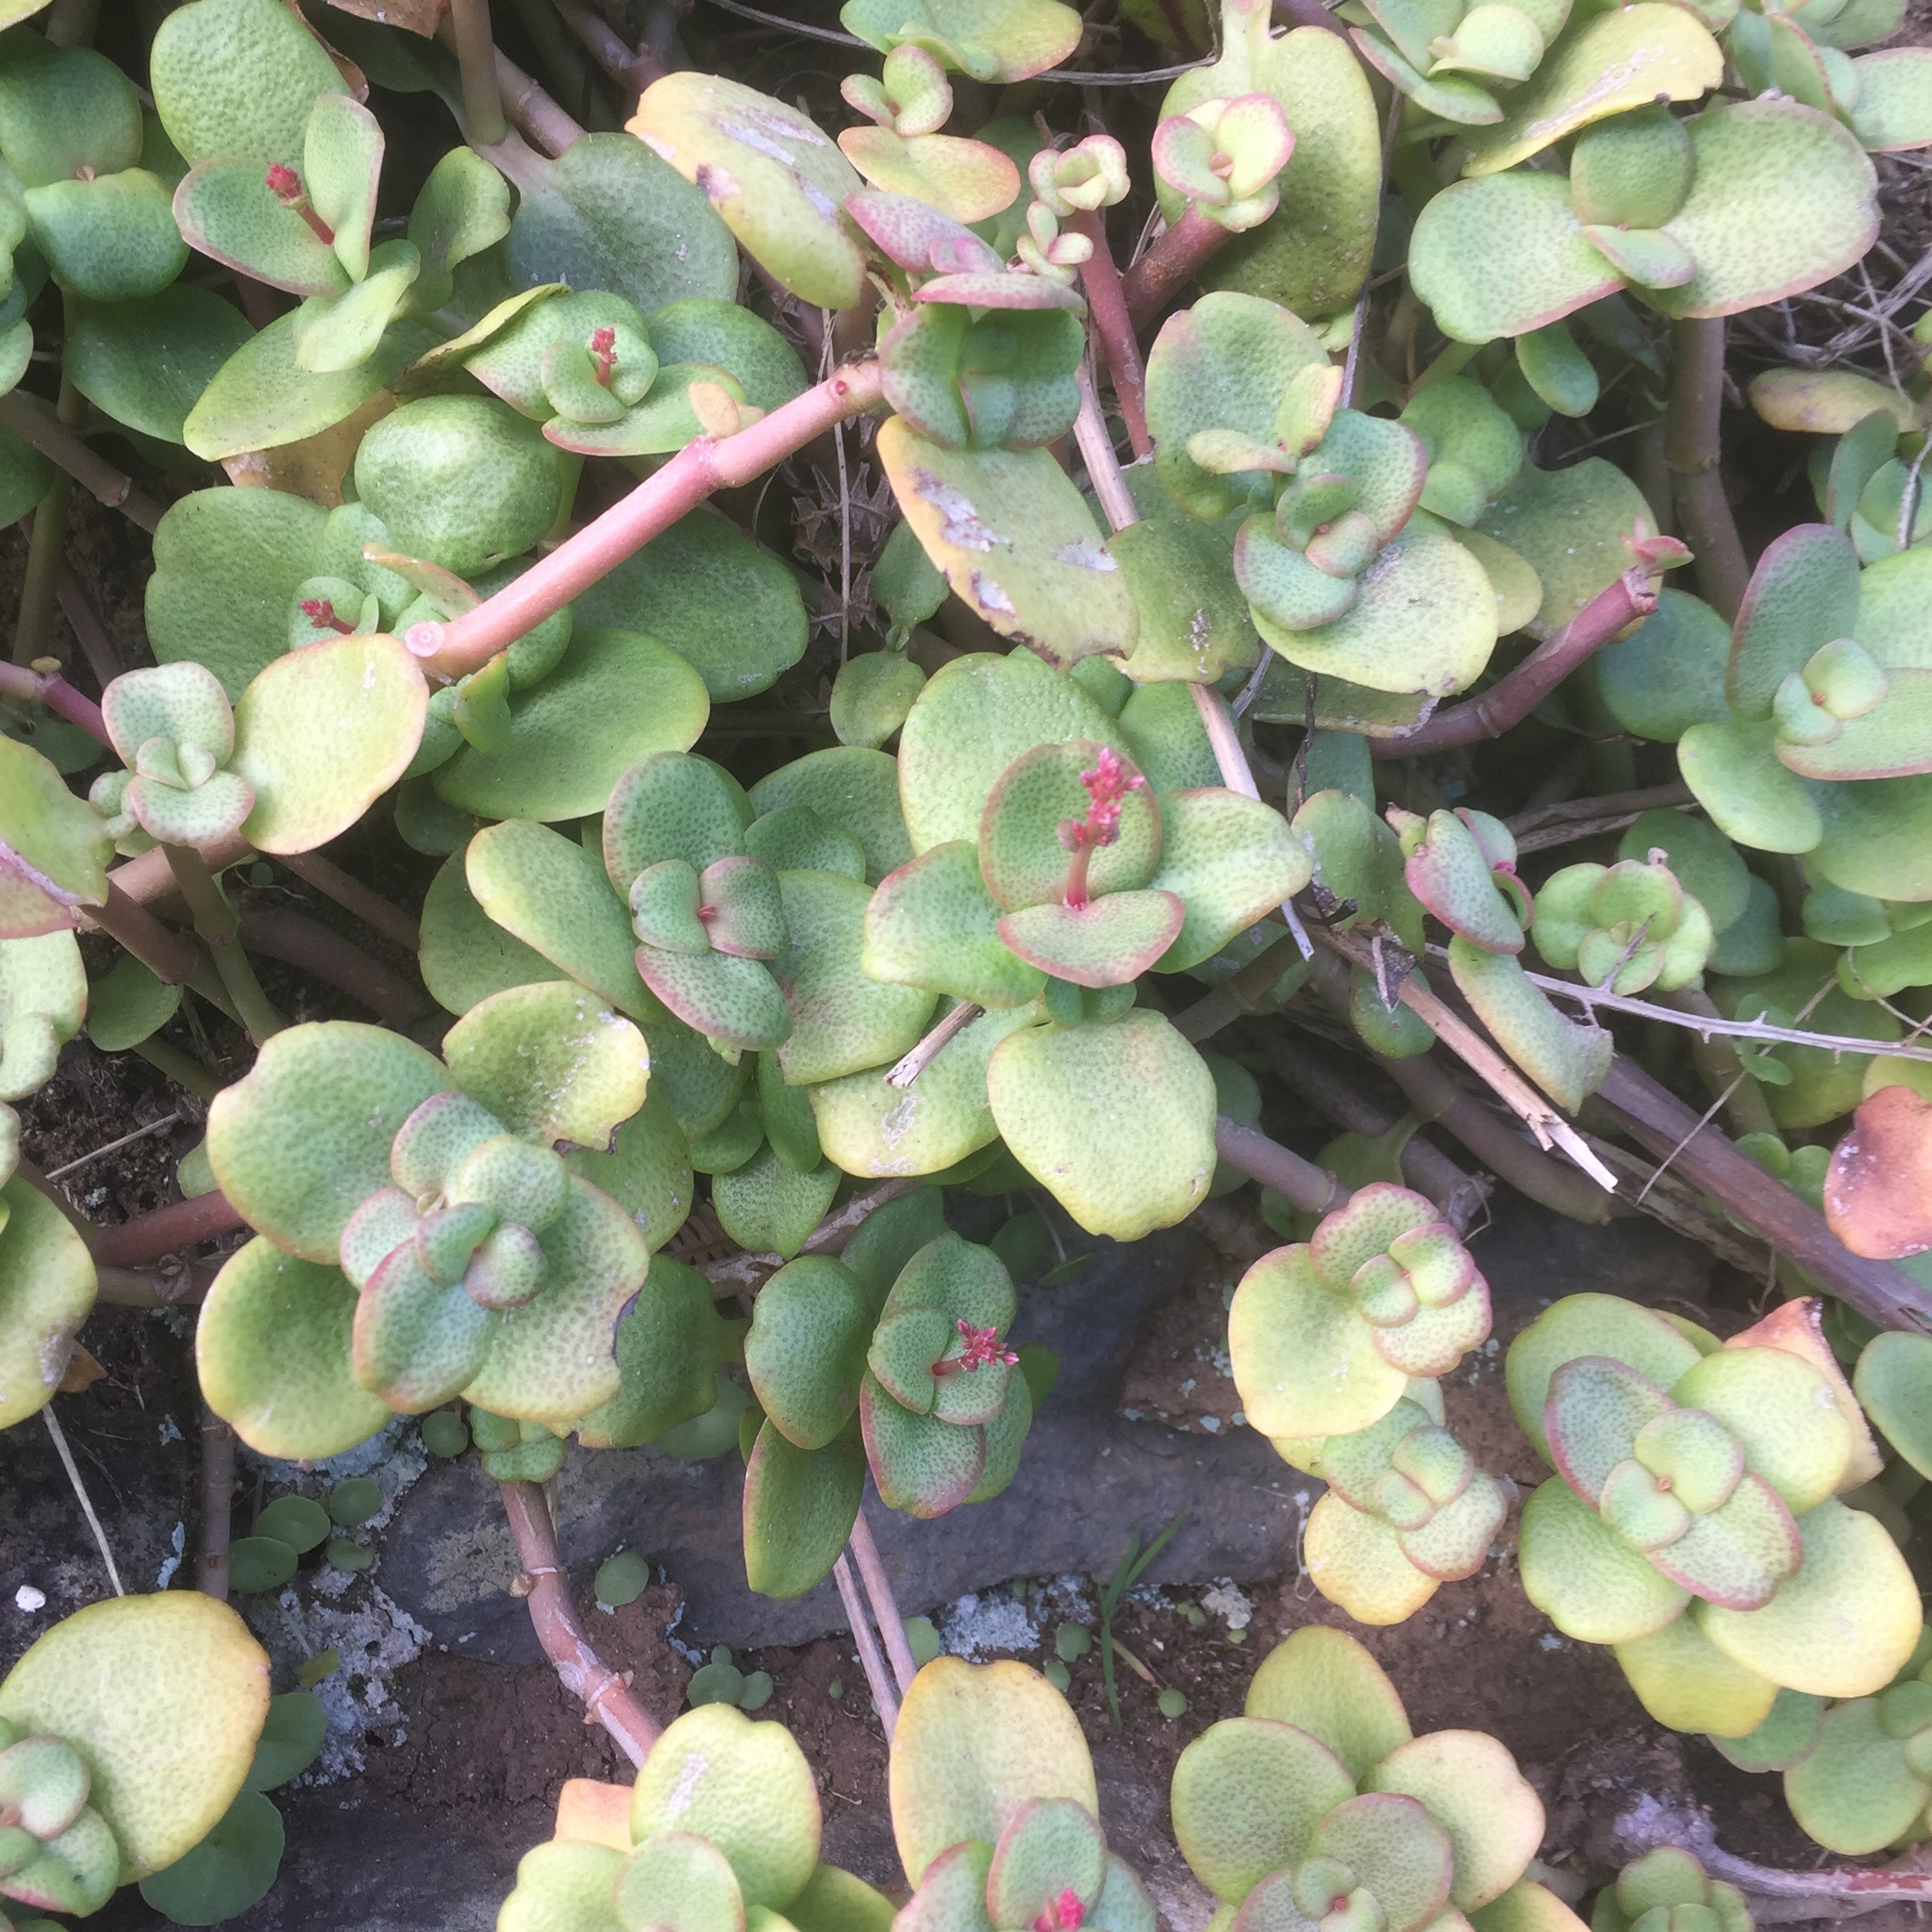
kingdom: Plantae
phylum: Tracheophyta
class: Magnoliopsida
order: Saxifragales
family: Crassulaceae
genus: Crassula
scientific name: Crassula multicava
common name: Cape province pygmyweed
